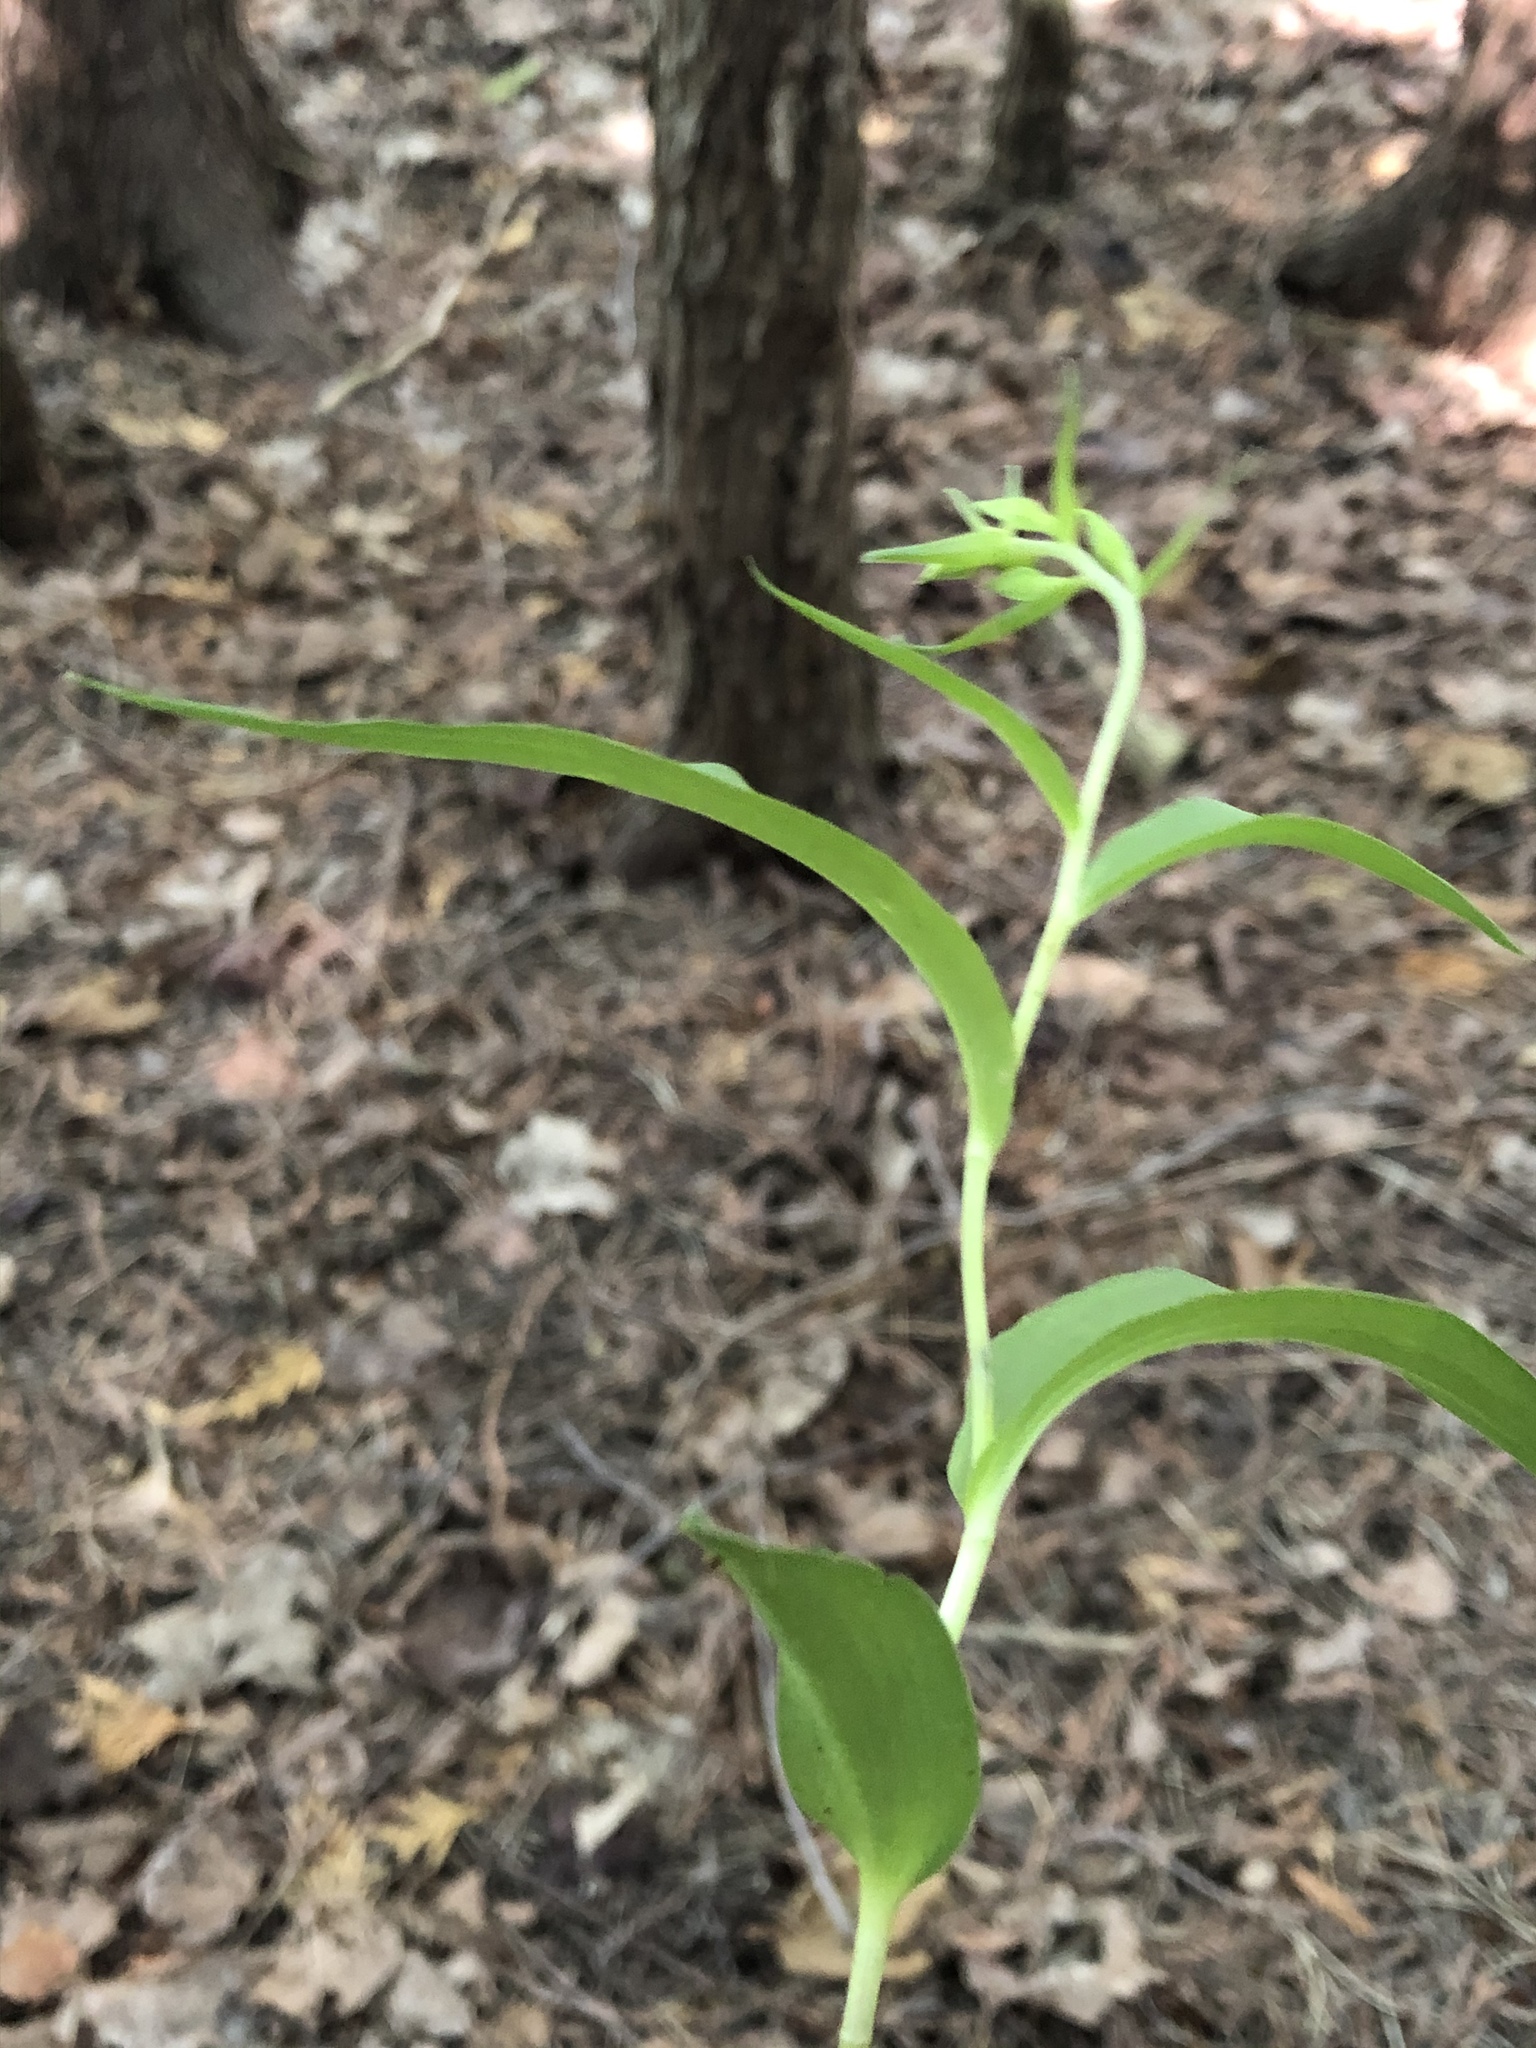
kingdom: Plantae
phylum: Tracheophyta
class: Liliopsida
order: Asparagales
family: Orchidaceae
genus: Epipactis
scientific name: Epipactis helleborine
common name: Broad-leaved helleborine
